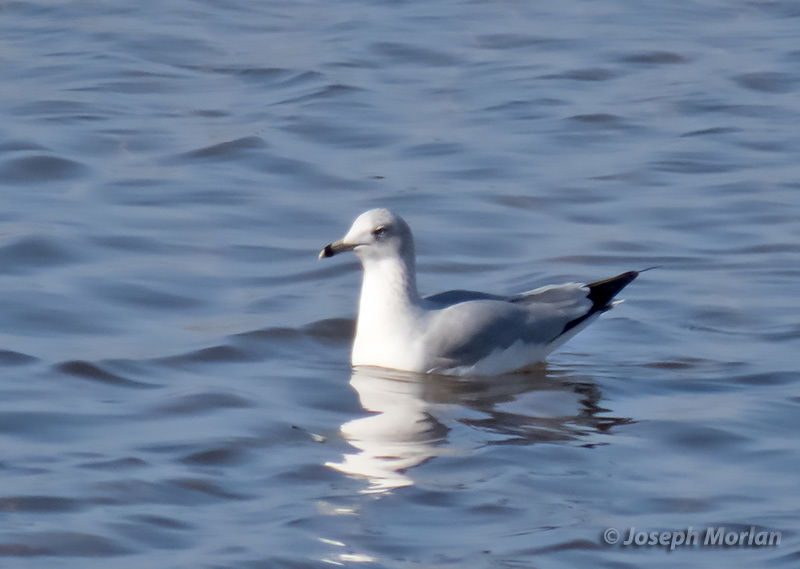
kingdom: Animalia
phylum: Chordata
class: Aves
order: Charadriiformes
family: Laridae
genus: Larus
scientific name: Larus delawarensis
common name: Ring-billed gull
